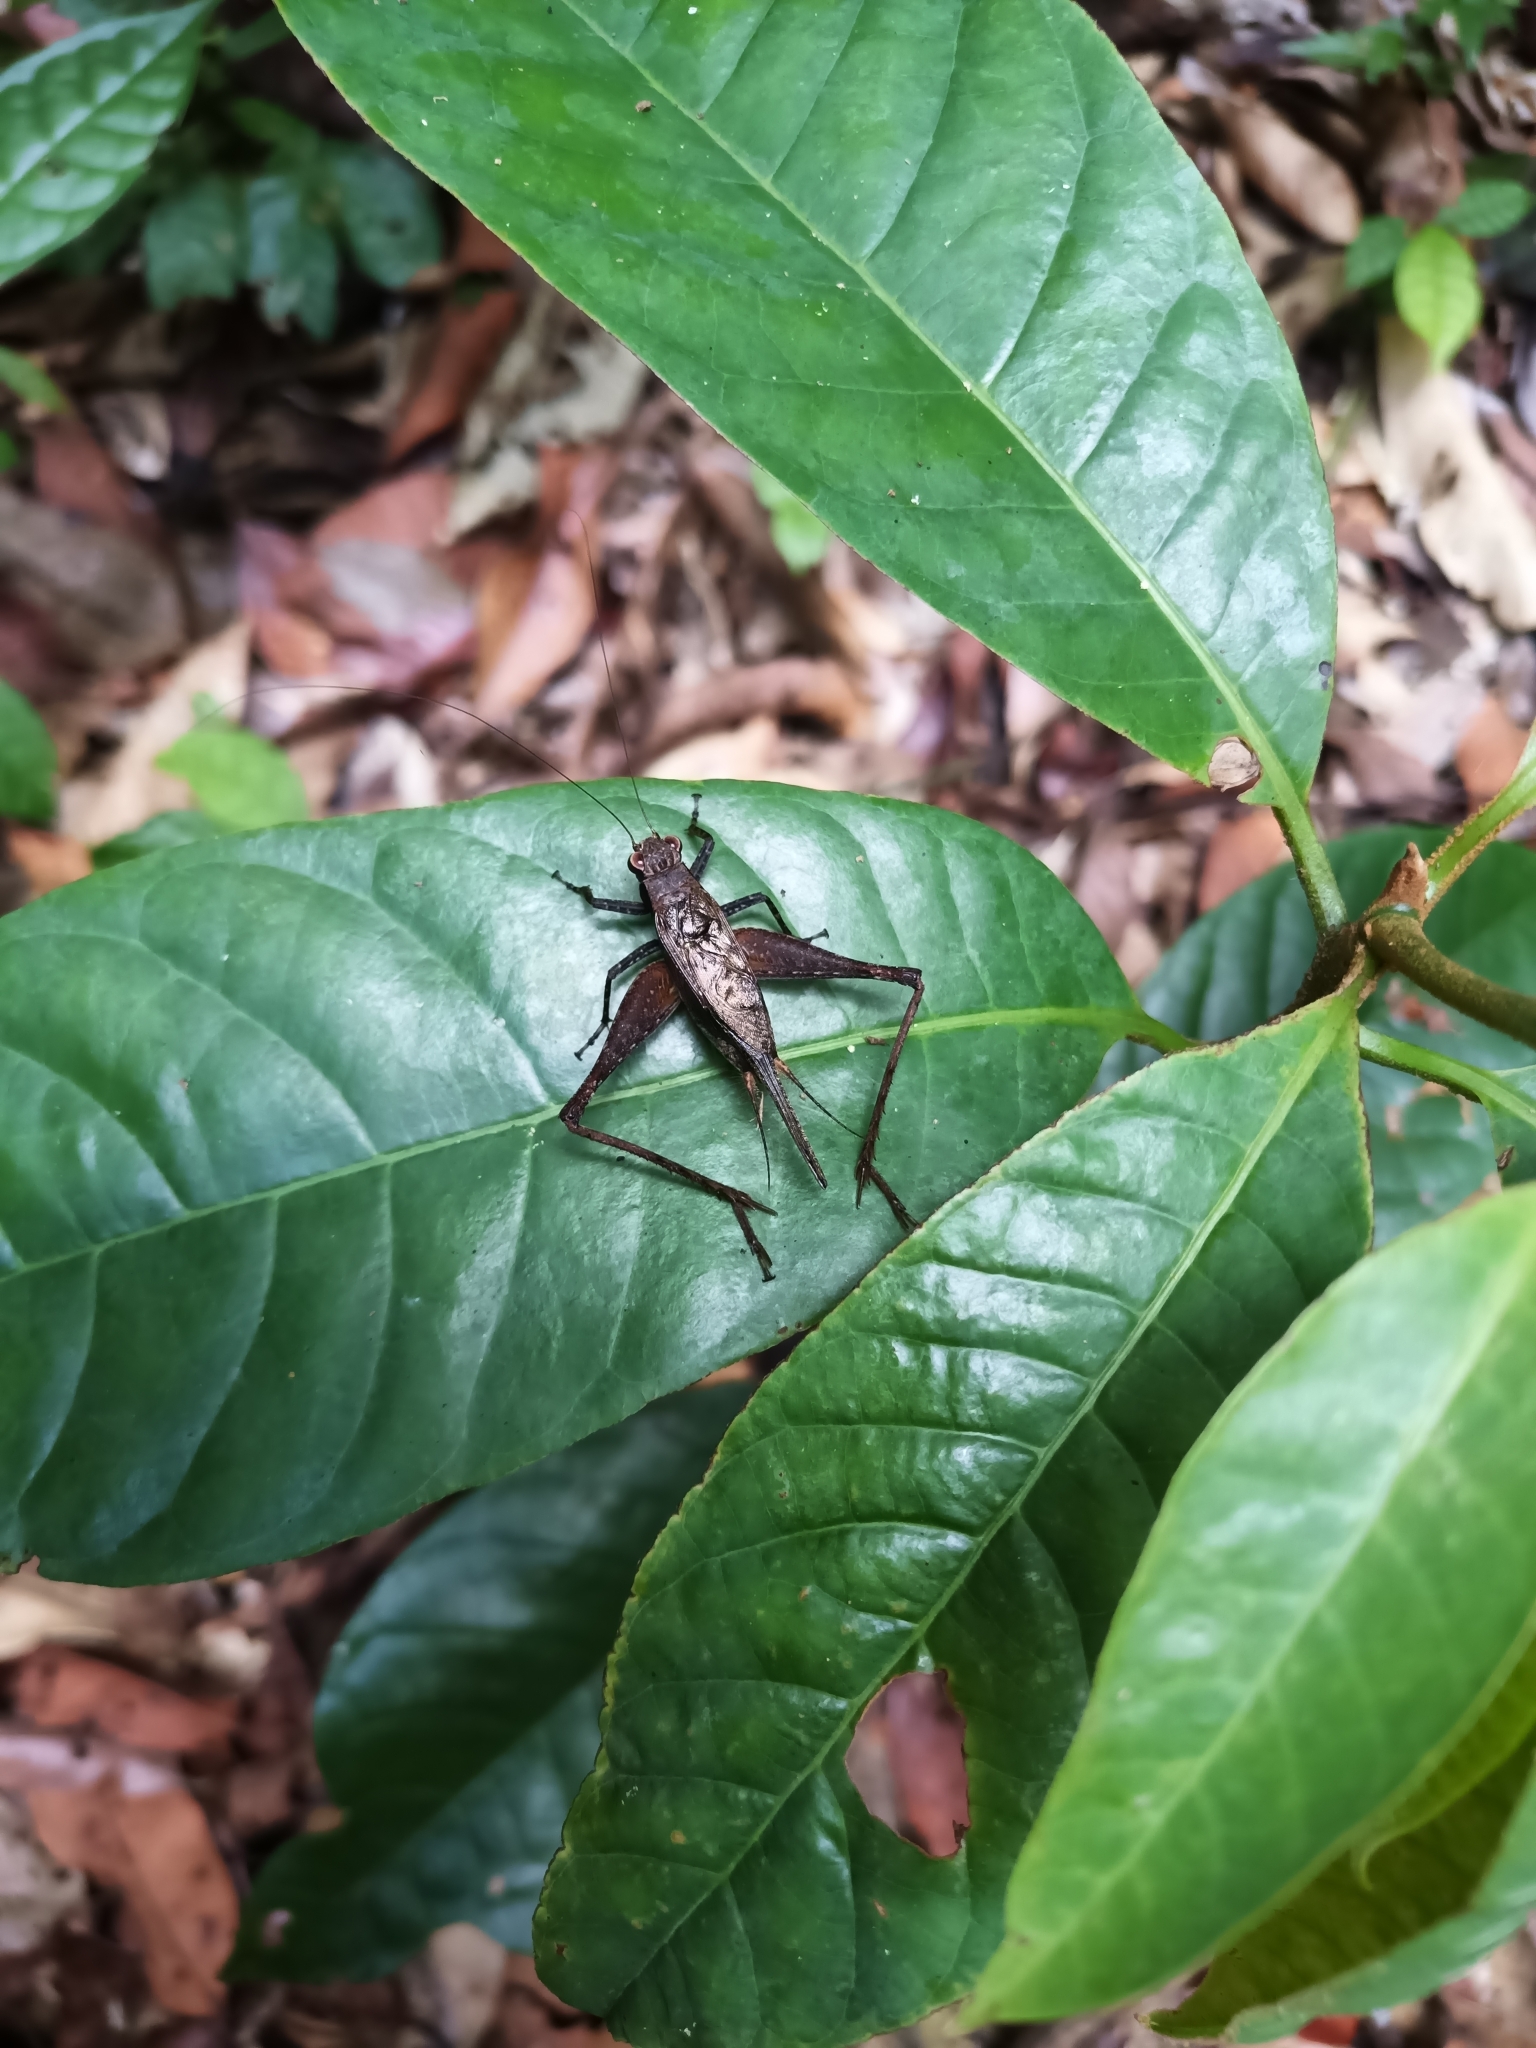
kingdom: Animalia
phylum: Arthropoda
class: Insecta
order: Orthoptera
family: Gryllidae
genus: Eneoptera
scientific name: Eneoptera guyanensis
